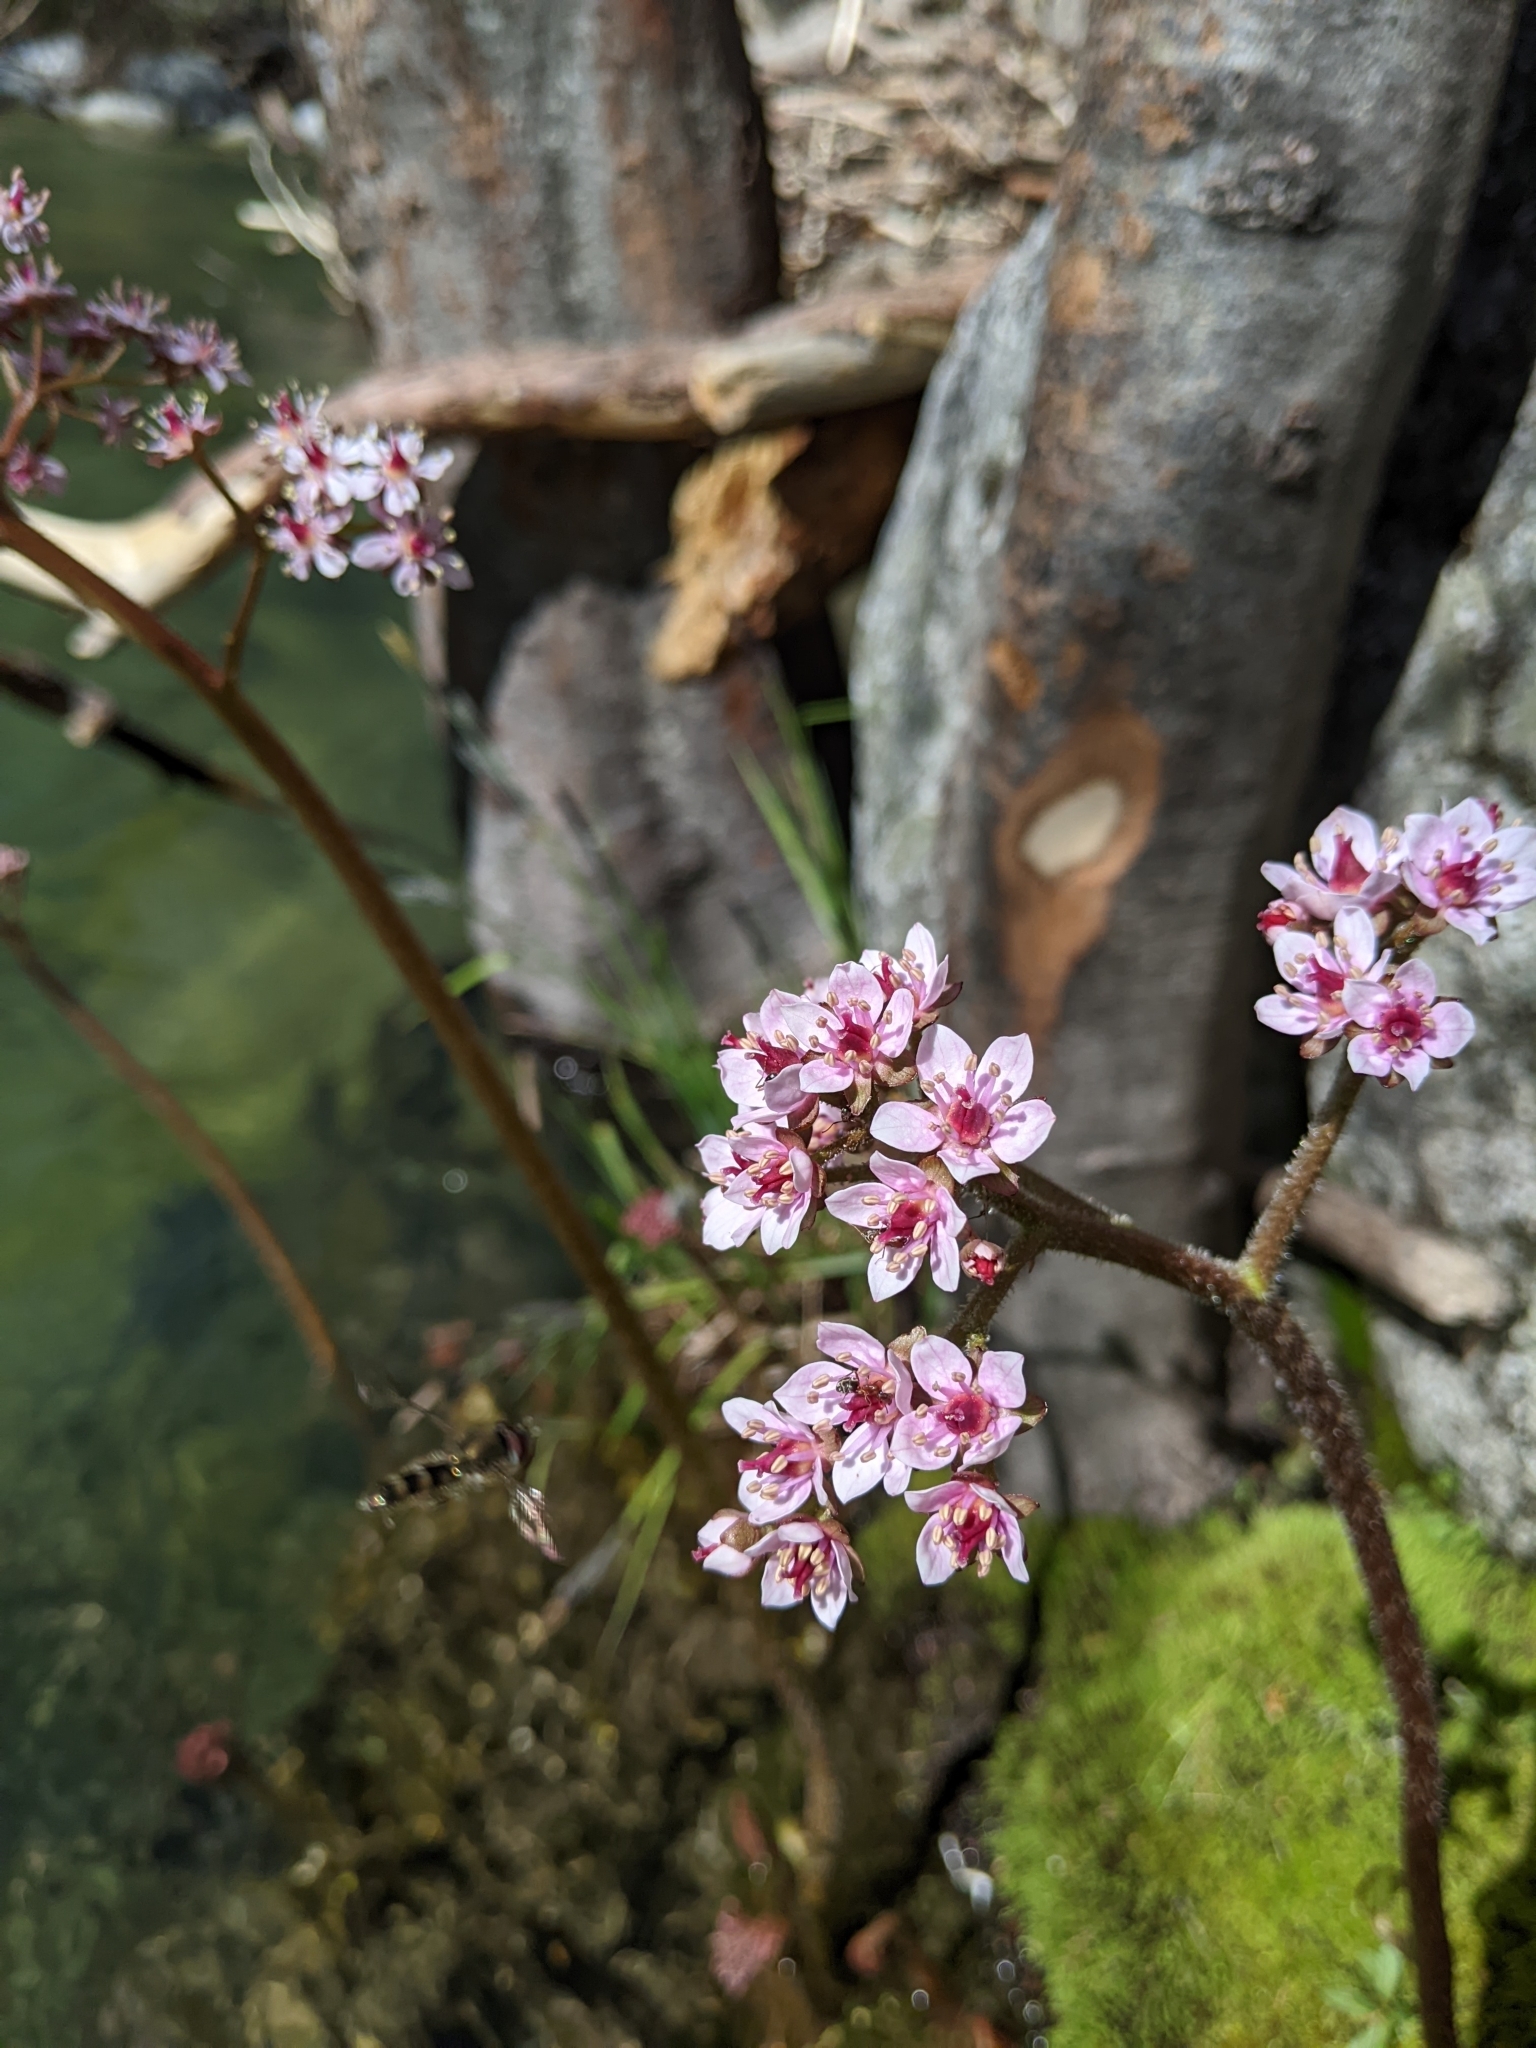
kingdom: Plantae
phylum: Tracheophyta
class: Magnoliopsida
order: Saxifragales
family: Saxifragaceae
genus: Darmera
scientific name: Darmera peltata
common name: Indian-rhubarb
